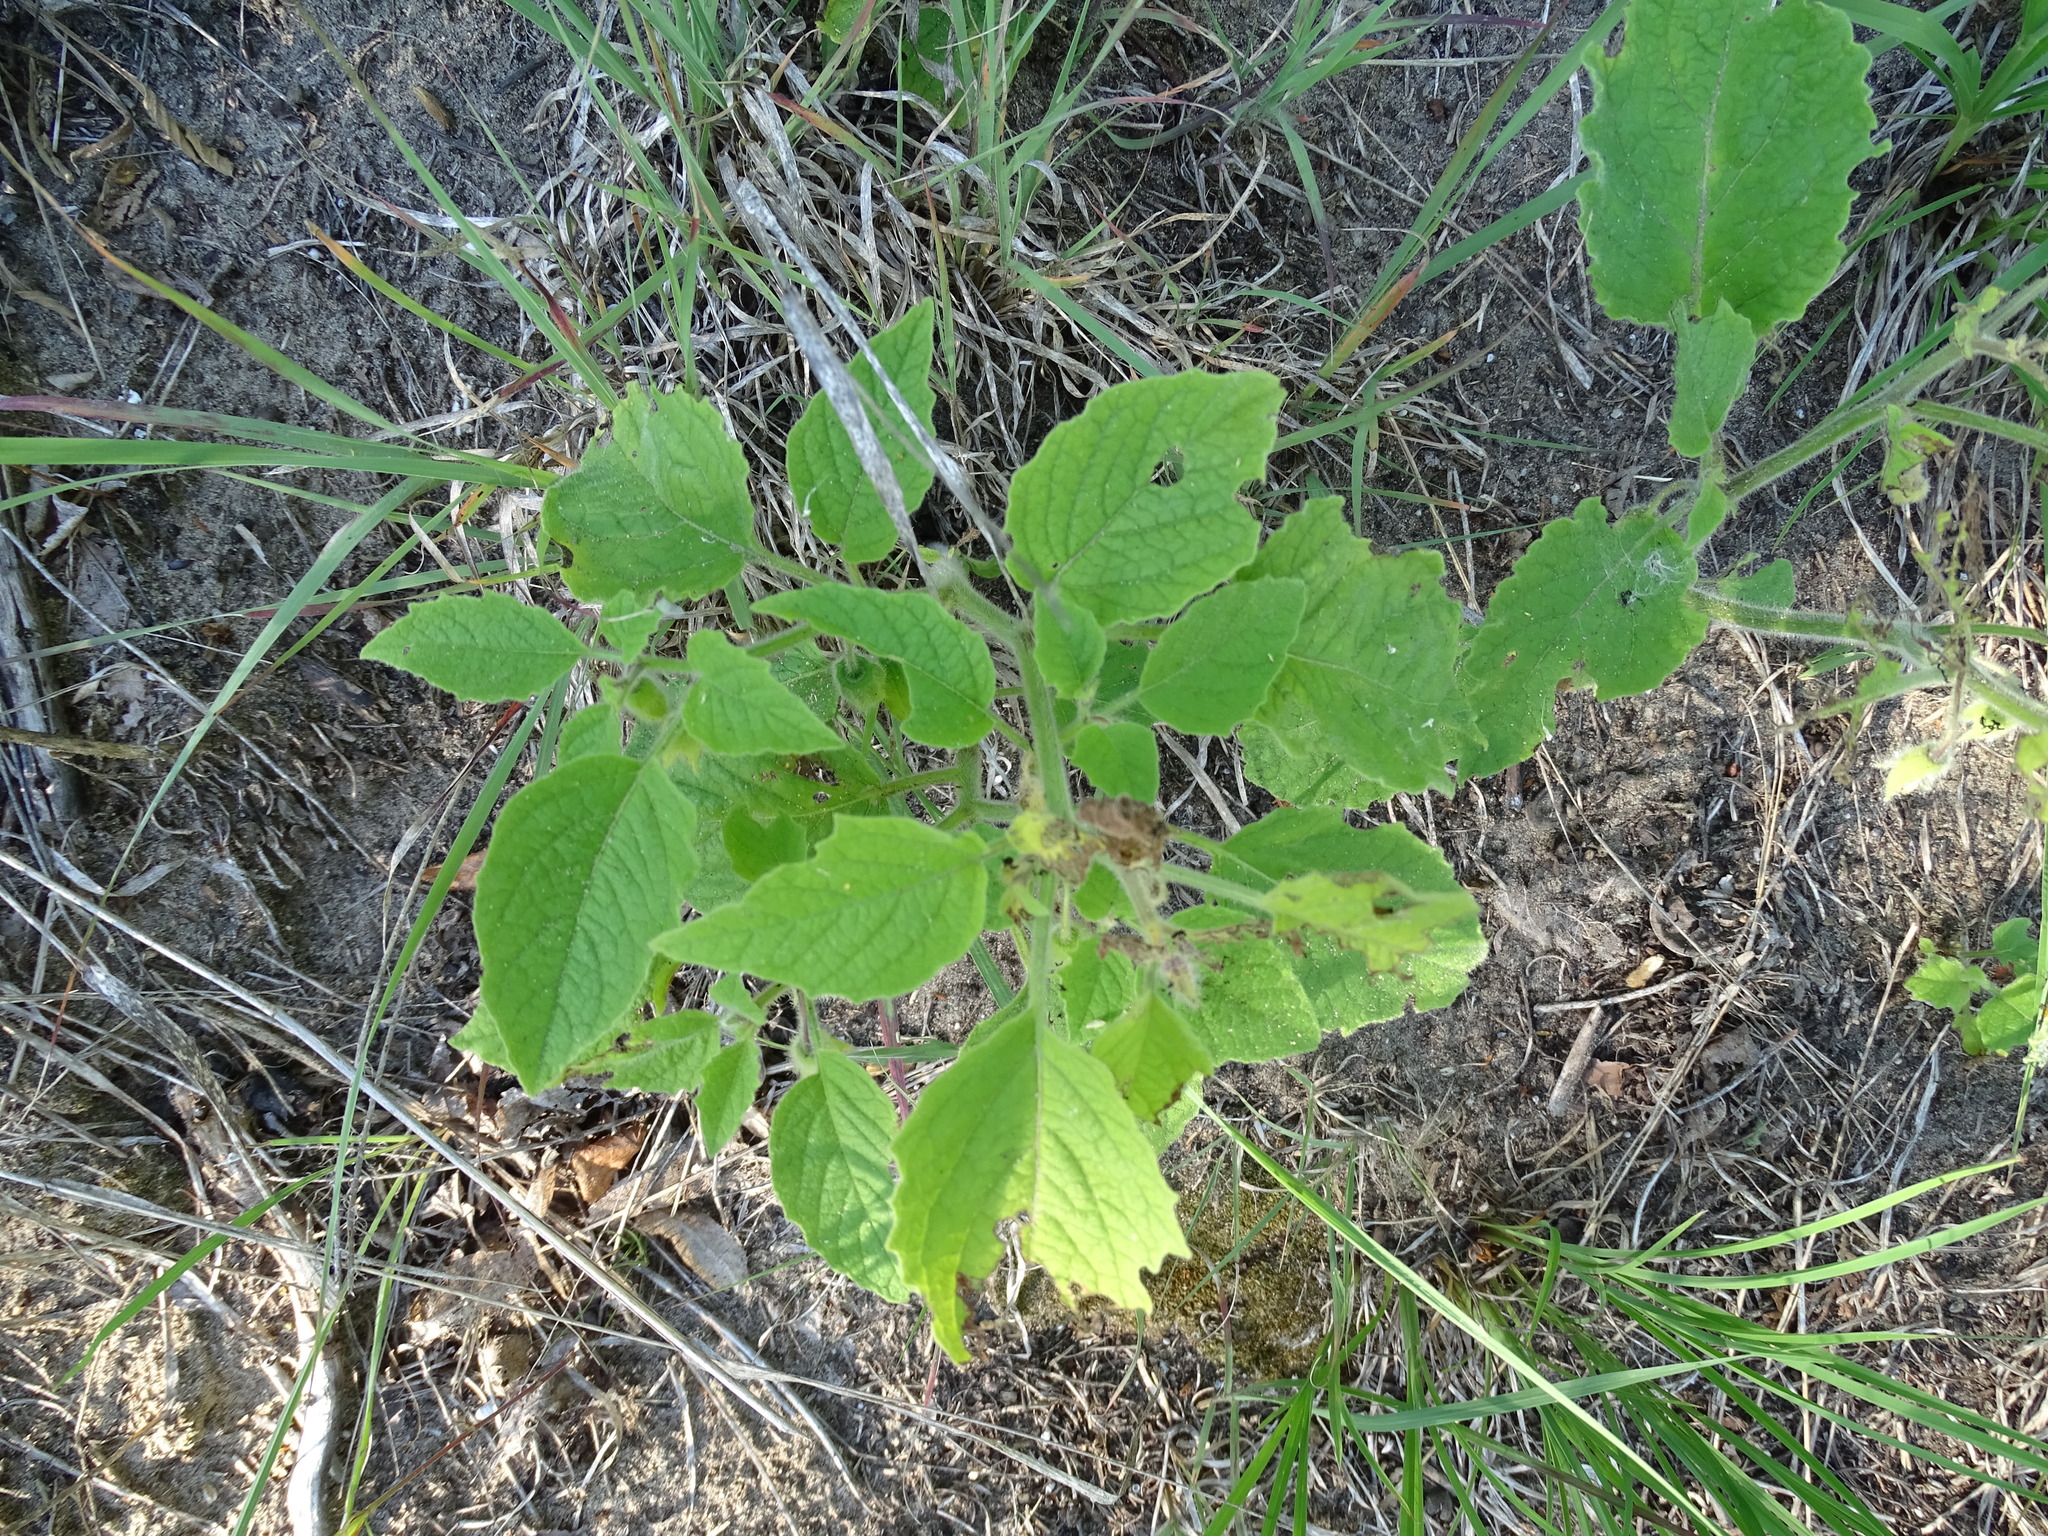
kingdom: Plantae
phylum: Tracheophyta
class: Magnoliopsida
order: Solanales
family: Solanaceae
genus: Physalis
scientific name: Physalis heterophylla
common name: Clammy ground-cherry
